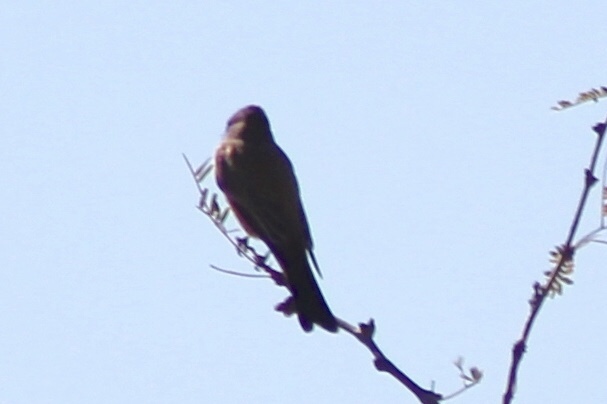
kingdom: Animalia
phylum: Chordata
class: Aves
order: Passeriformes
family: Tyrannidae
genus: Sayornis
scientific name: Sayornis saya
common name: Say's phoebe
